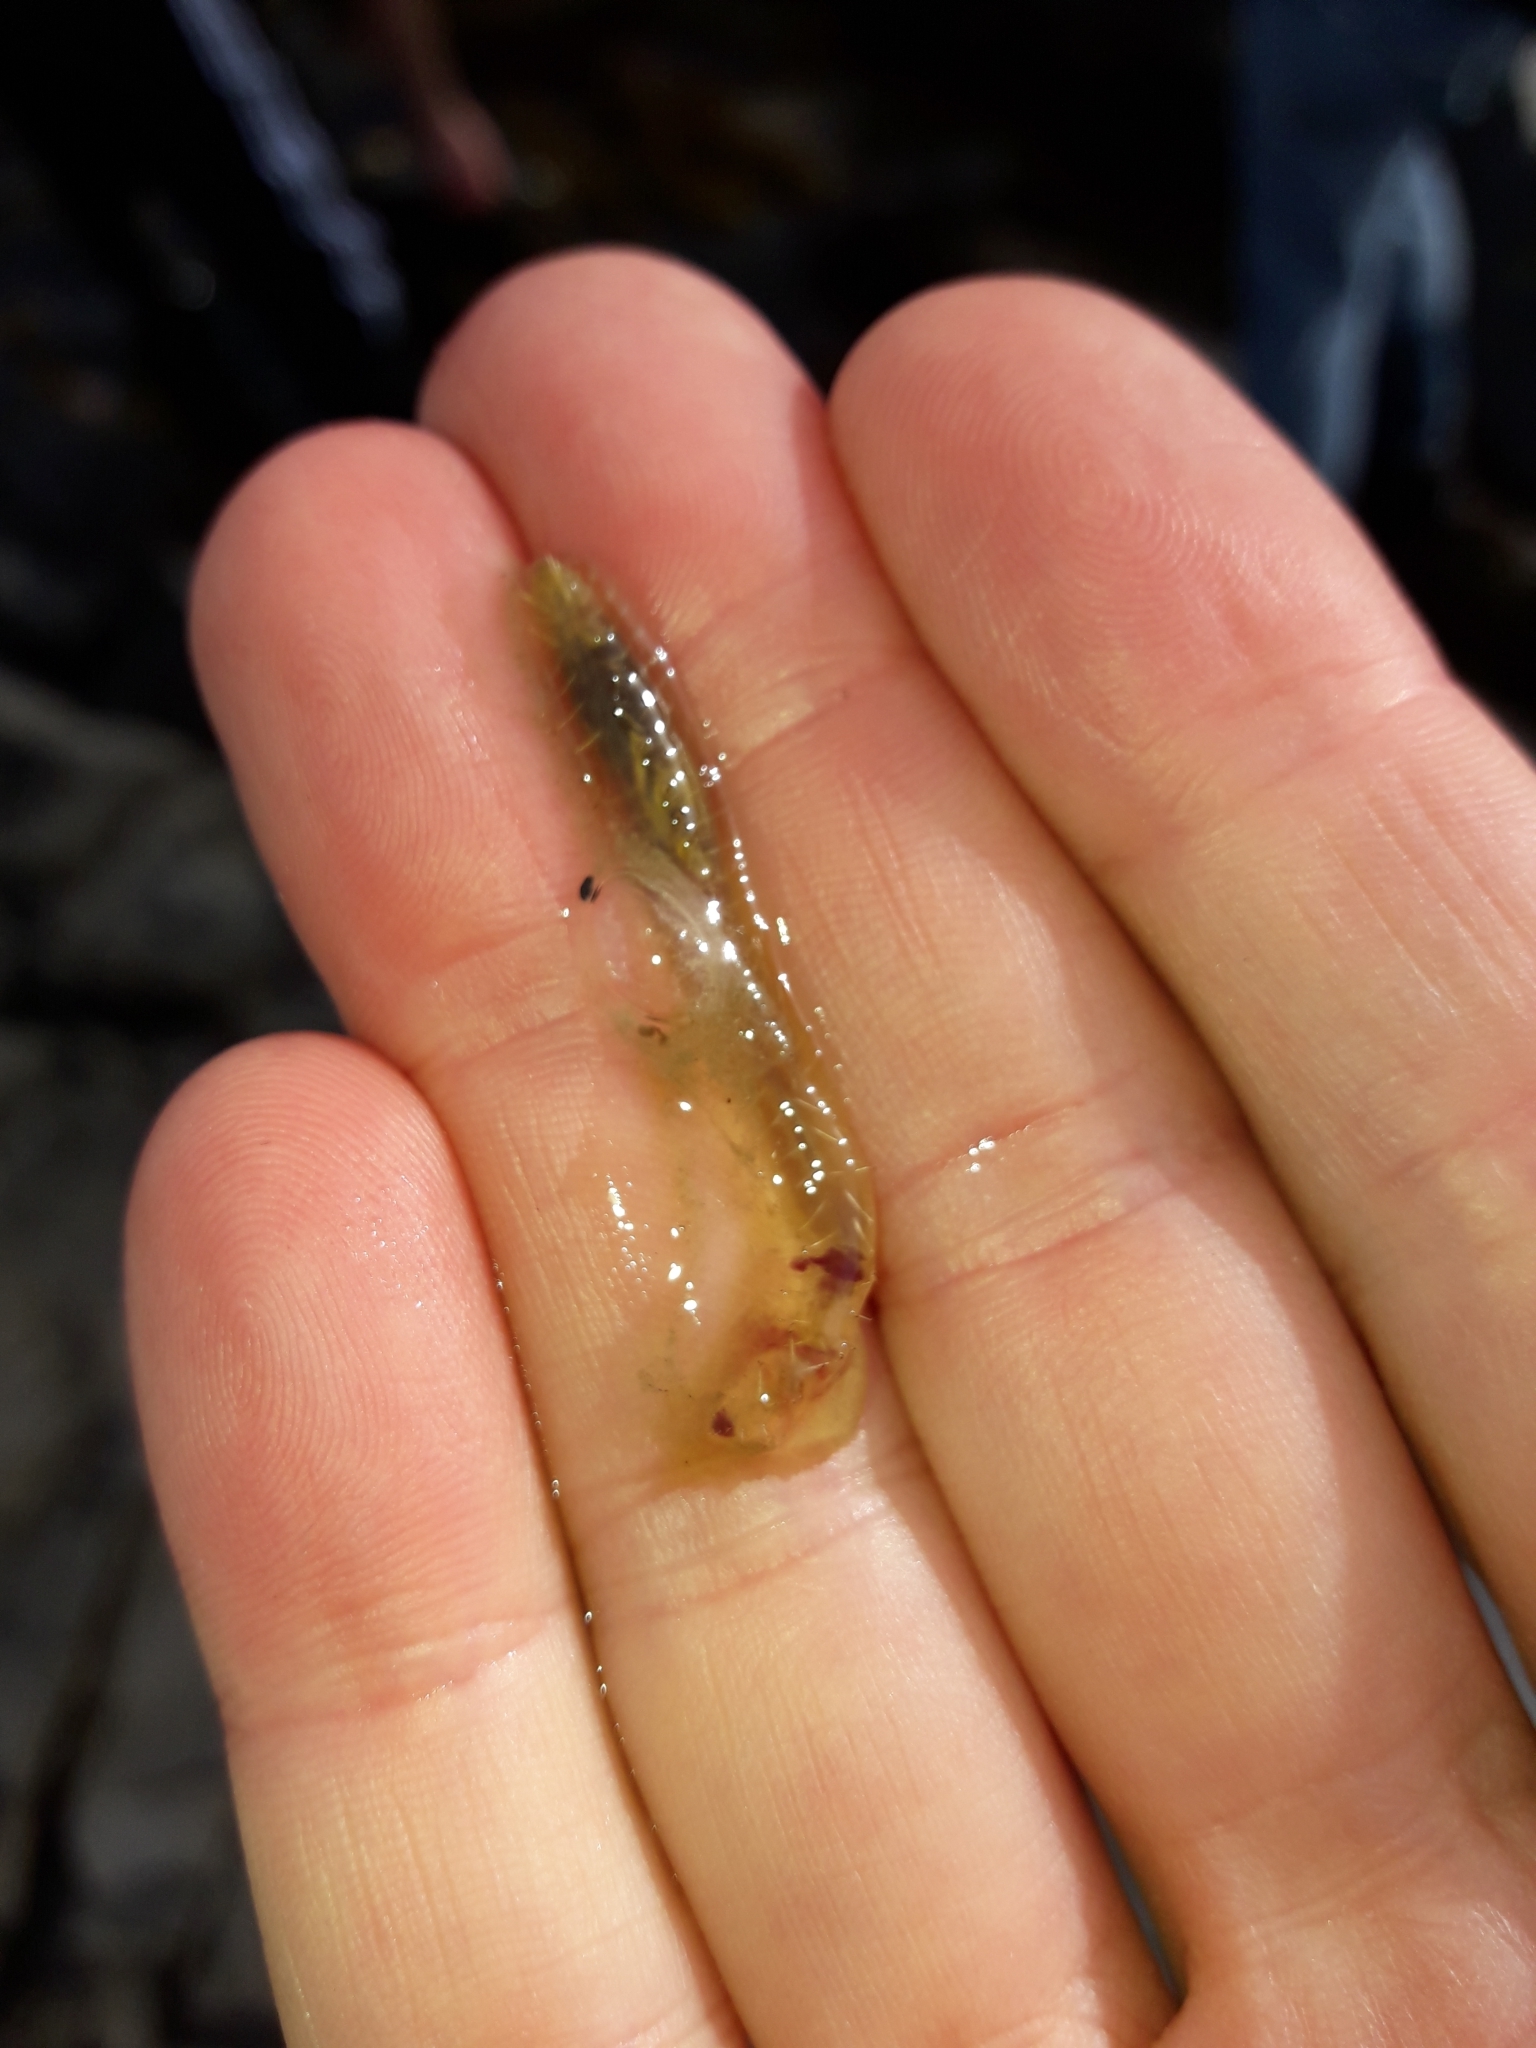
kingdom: Animalia
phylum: Annelida
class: Polychaeta
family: Flabelligeridae
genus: Flabelligera
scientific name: Flabelligera bicolor
